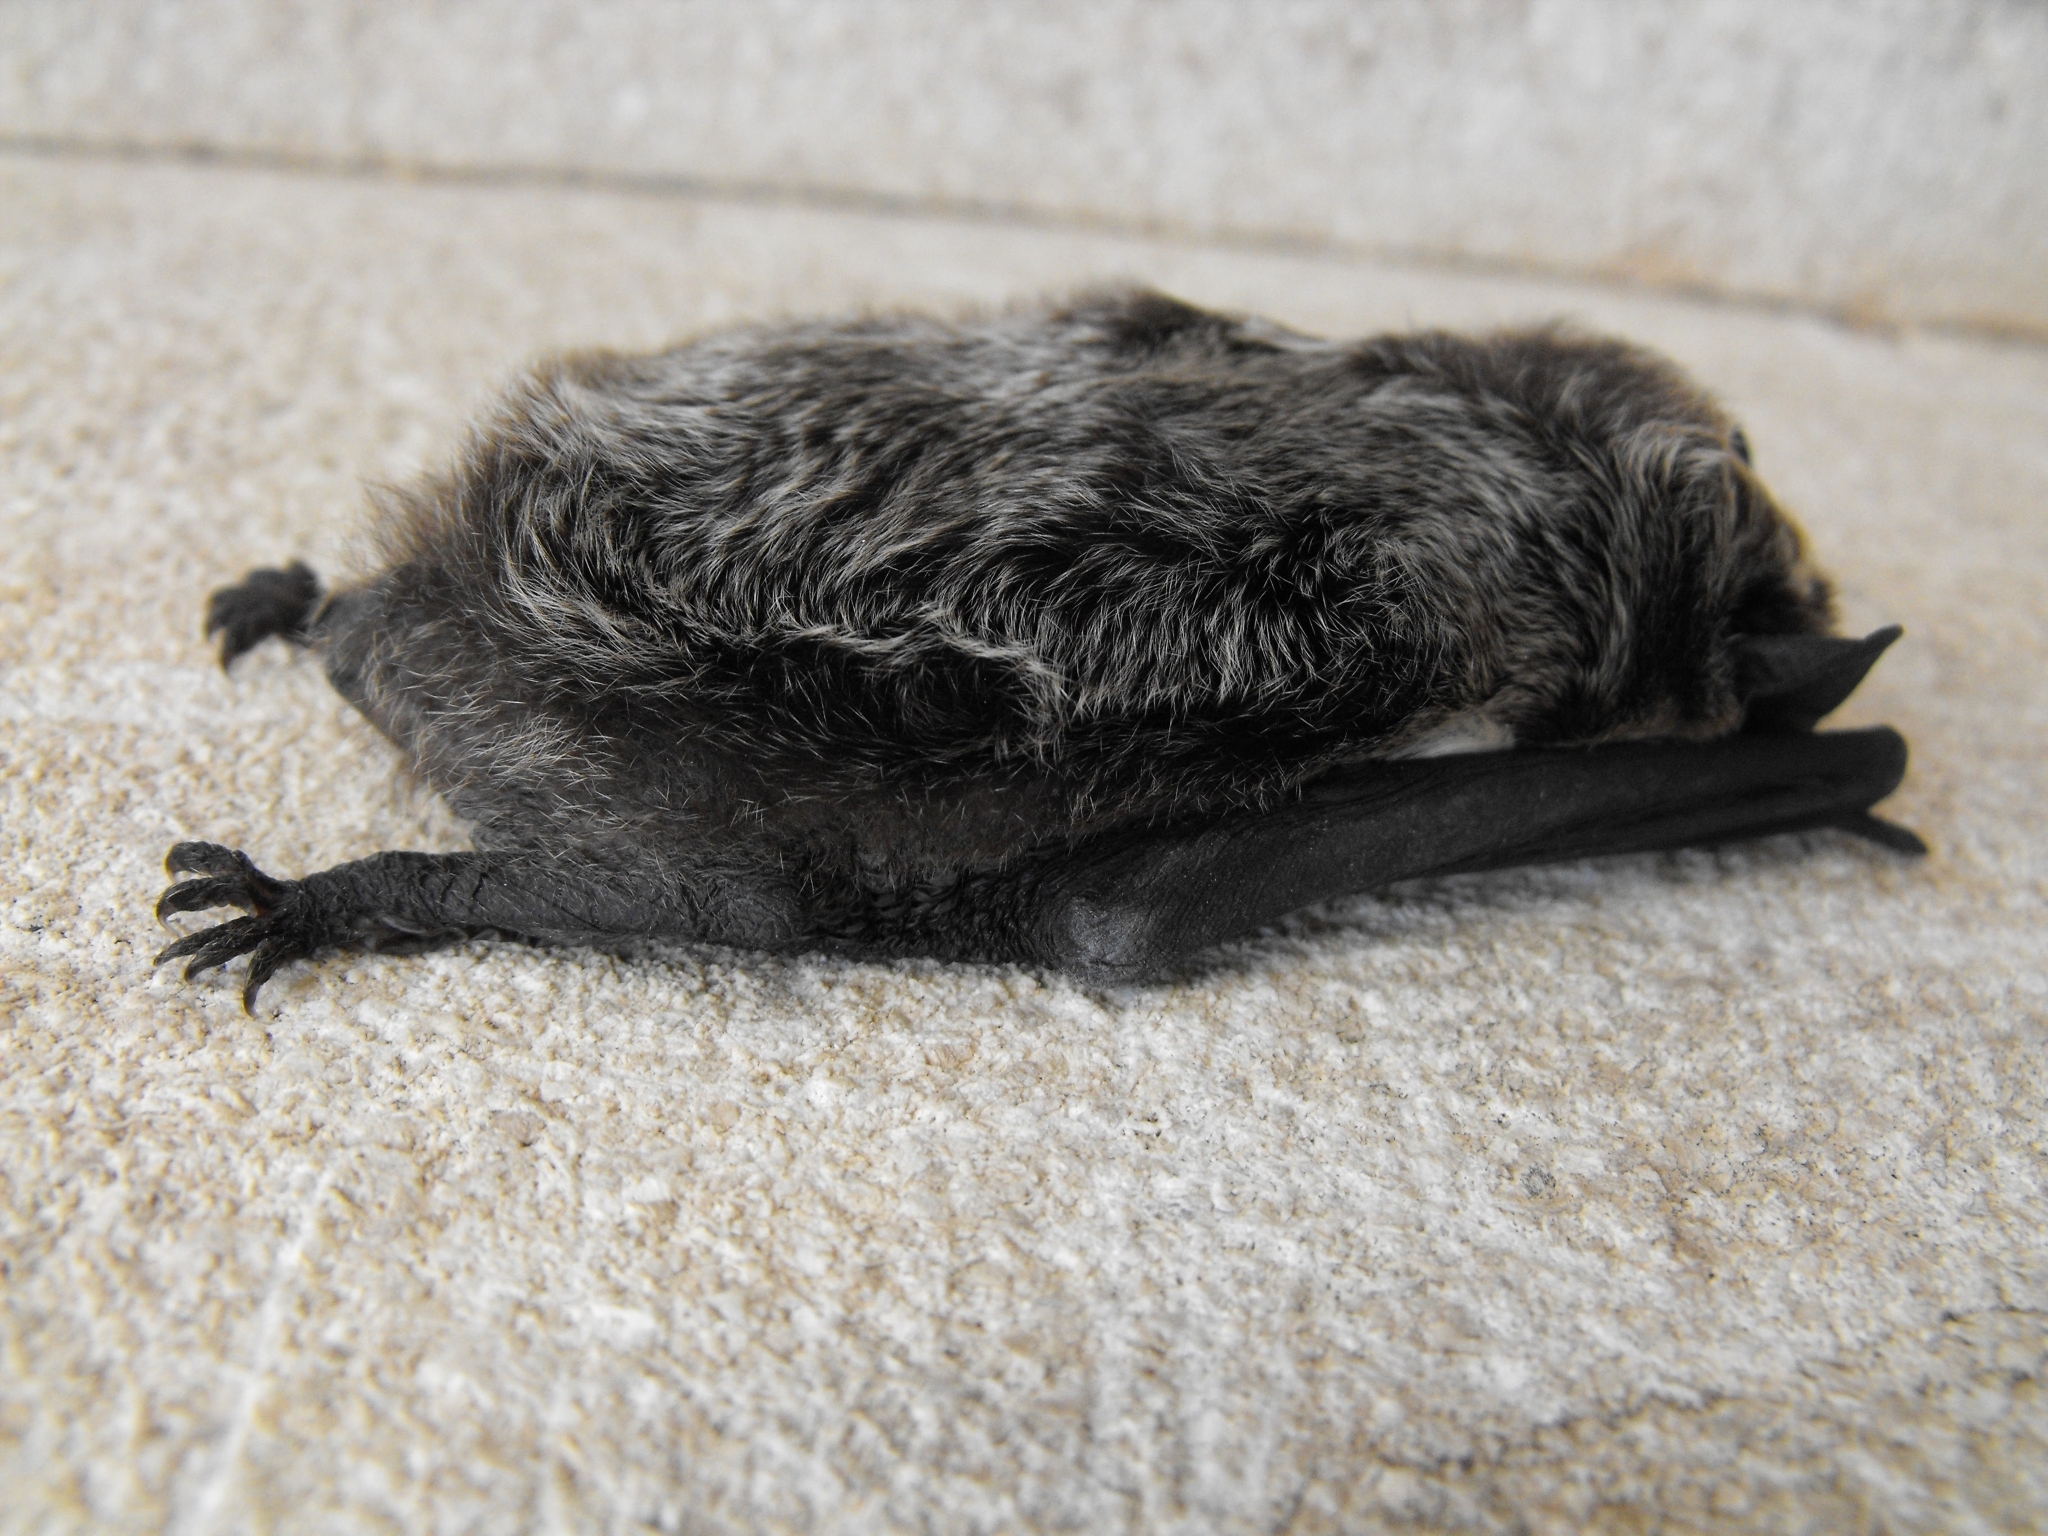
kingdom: Animalia
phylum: Chordata
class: Mammalia
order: Chiroptera
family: Vespertilionidae
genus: Vespertilio
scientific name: Vespertilio murinus
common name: Particolored bat
